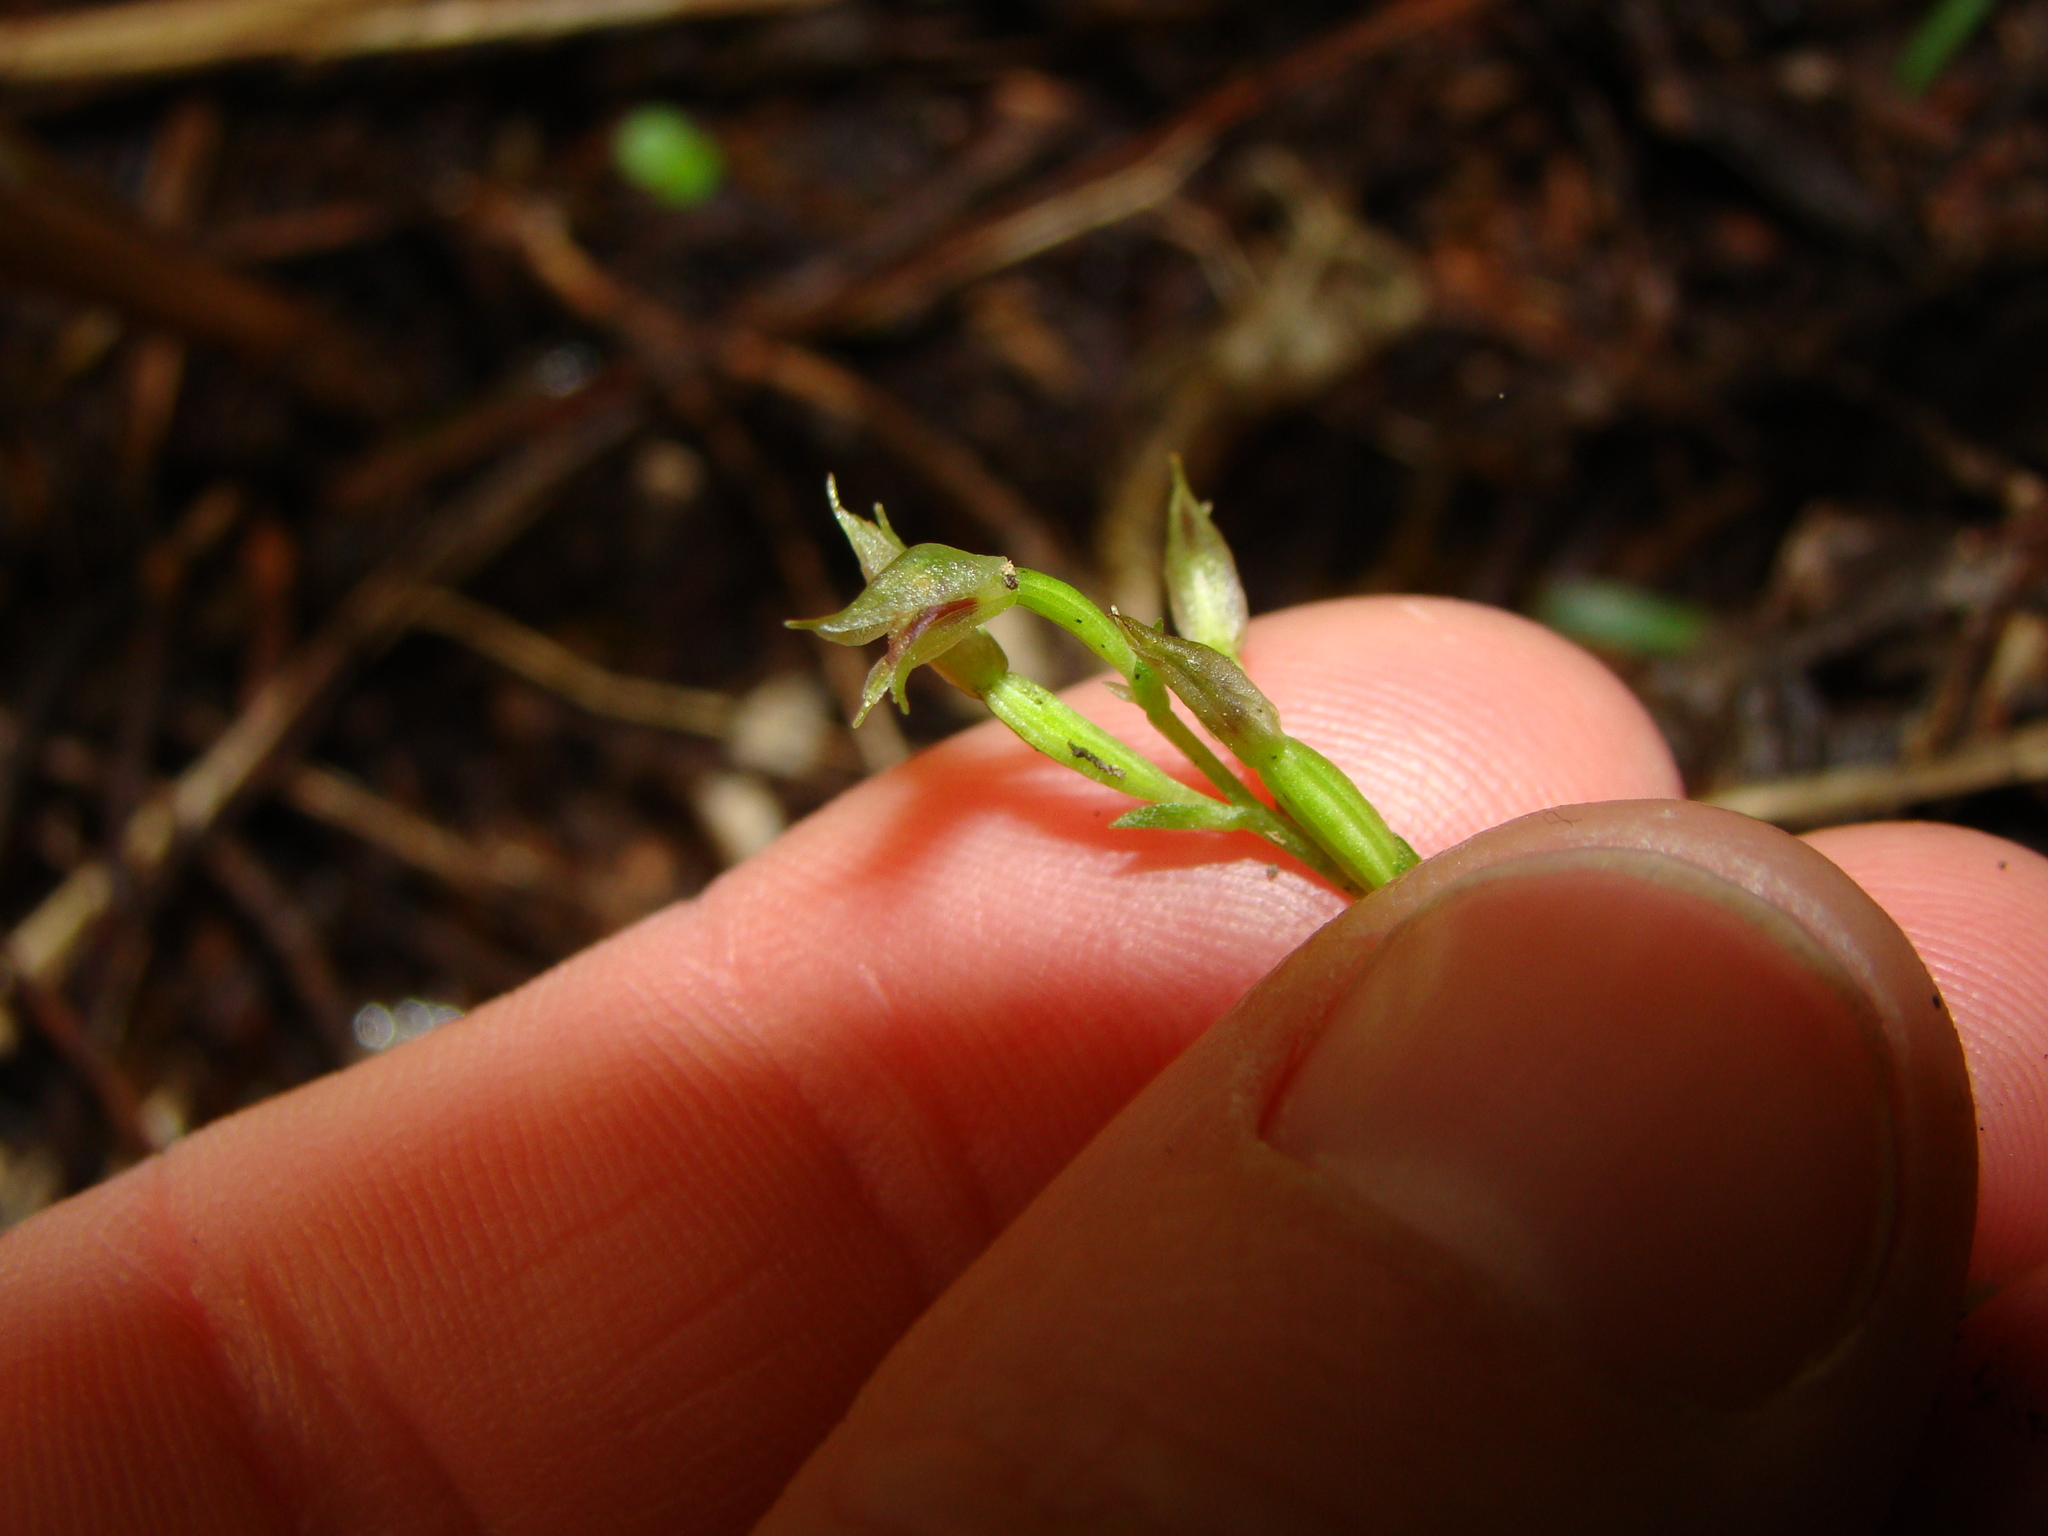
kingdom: Plantae
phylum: Tracheophyta
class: Liliopsida
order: Asparagales
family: Orchidaceae
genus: Acianthus
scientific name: Acianthus sinclairii
